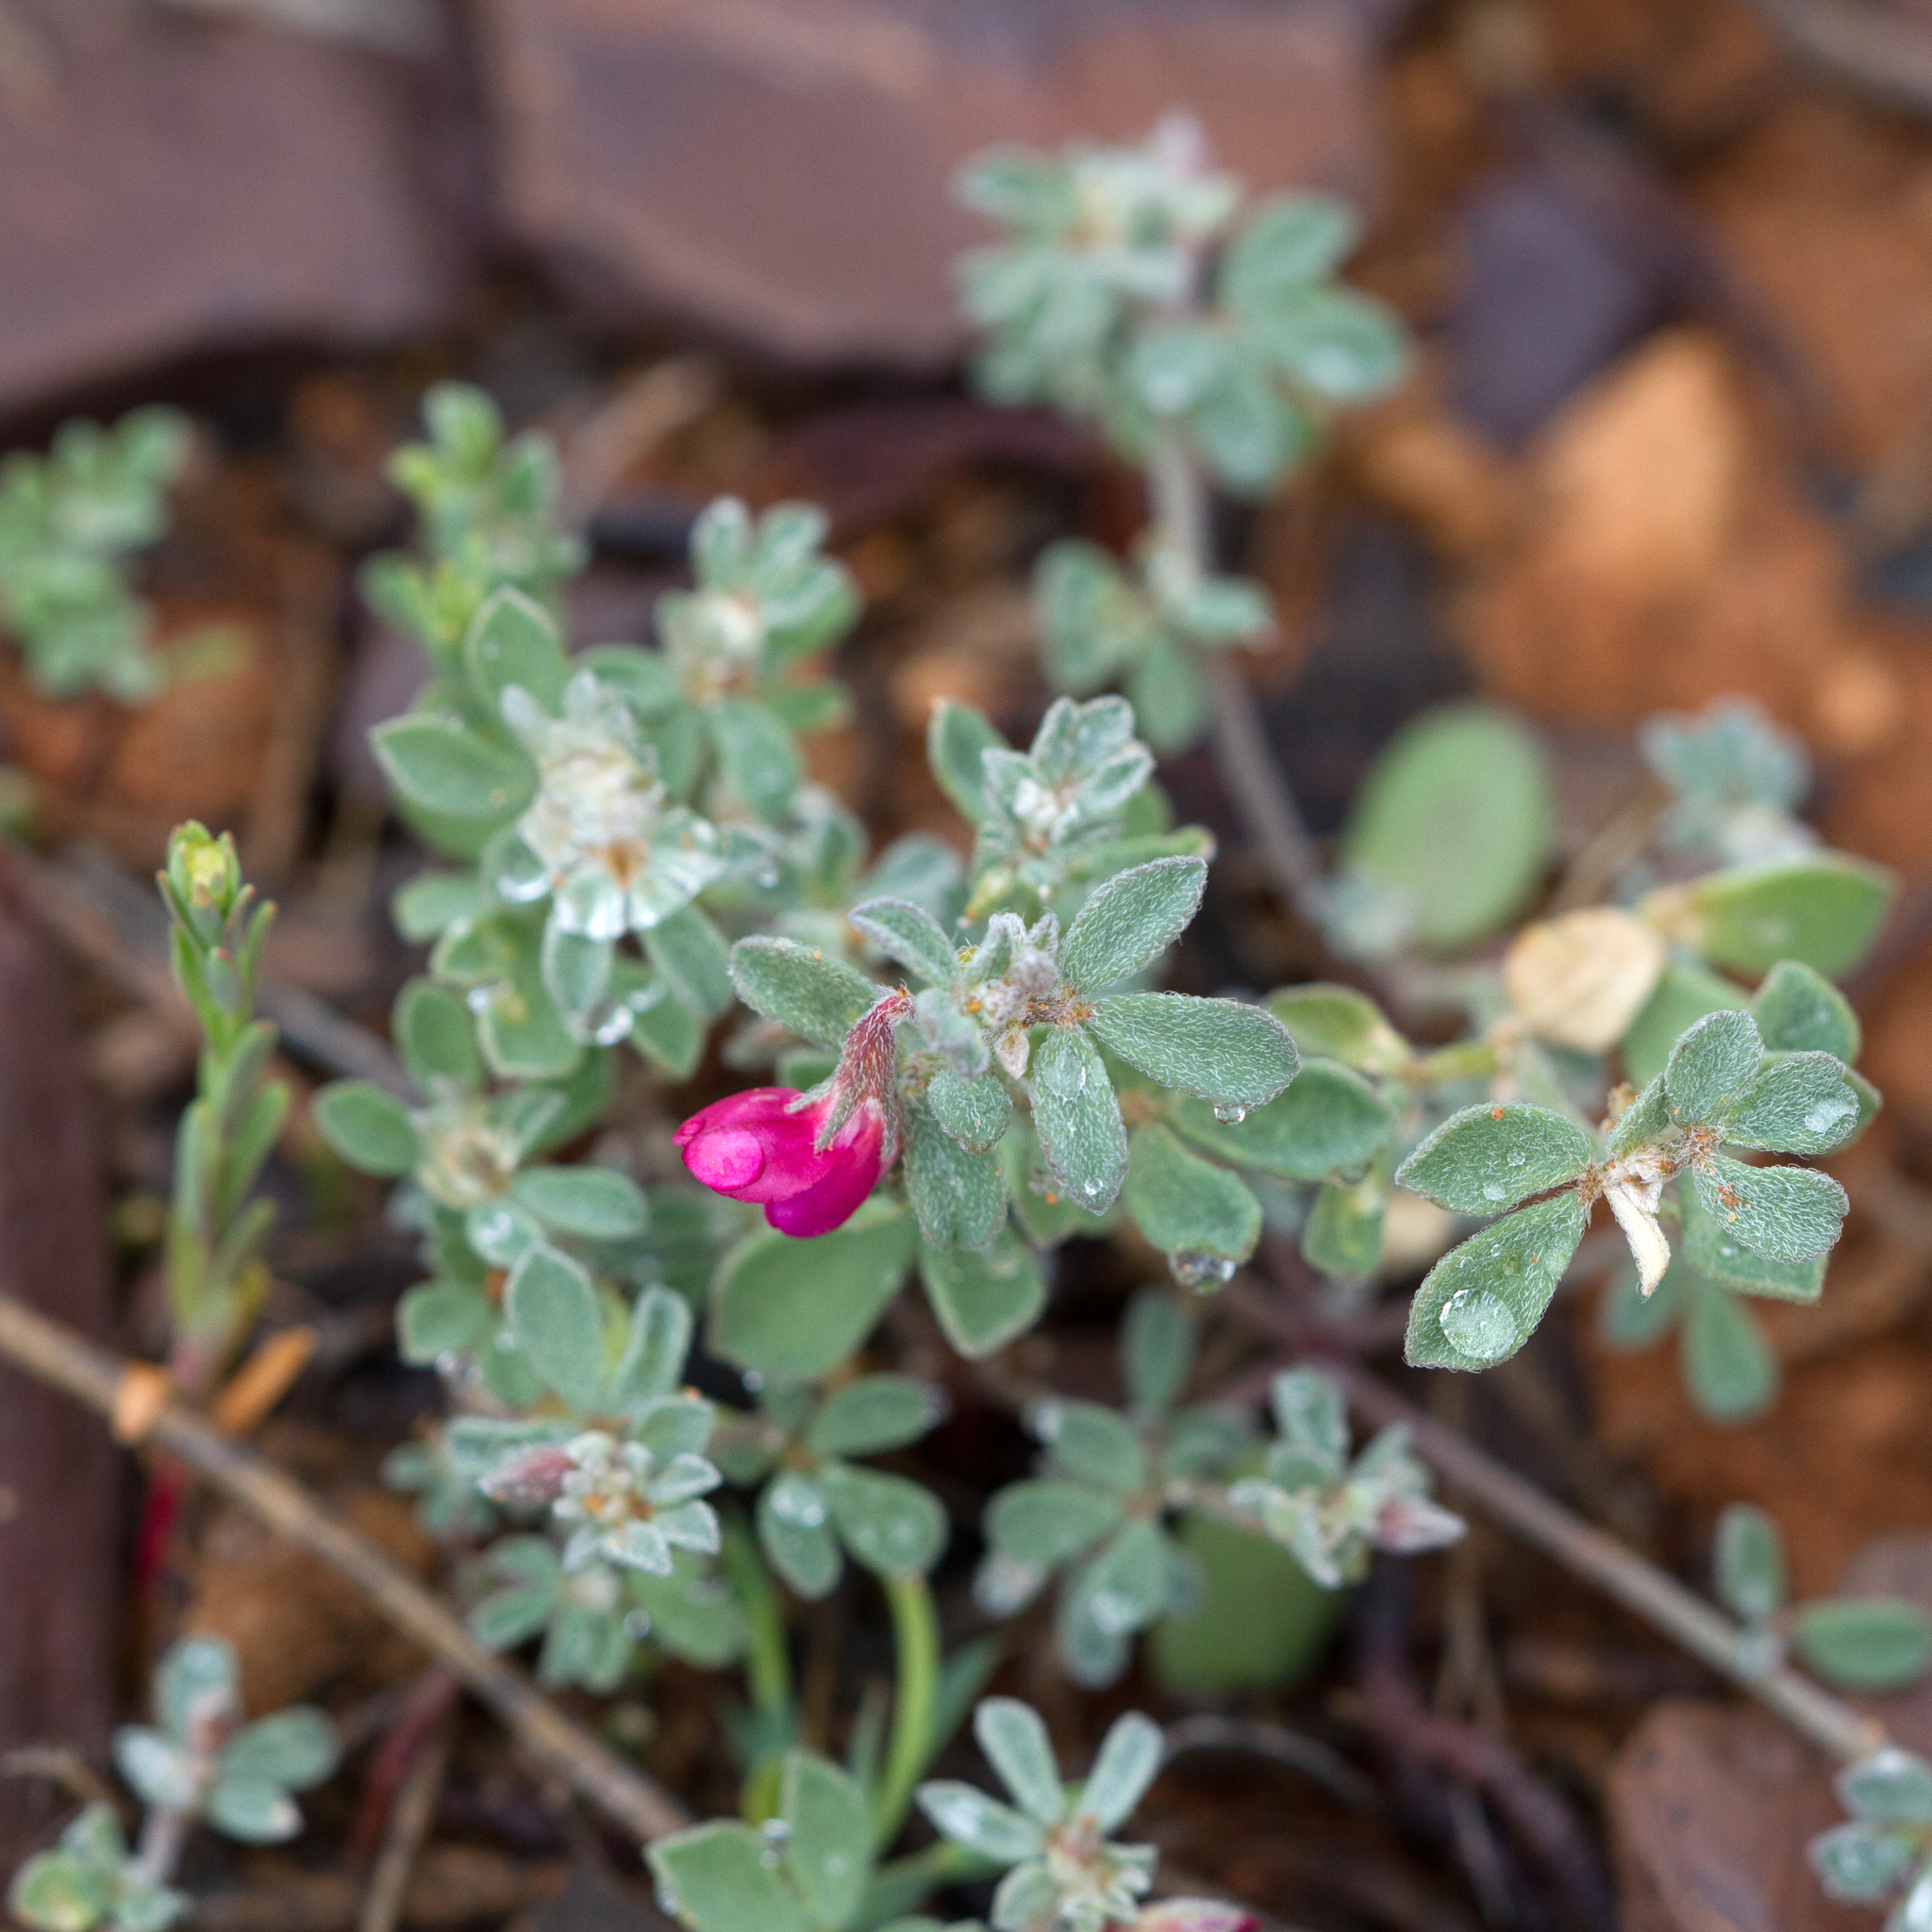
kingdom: Plantae
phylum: Tracheophyta
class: Magnoliopsida
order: Fabales
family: Fabaceae
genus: Lotus
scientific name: Lotus cruentus
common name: Red bird's-foot trefoil
